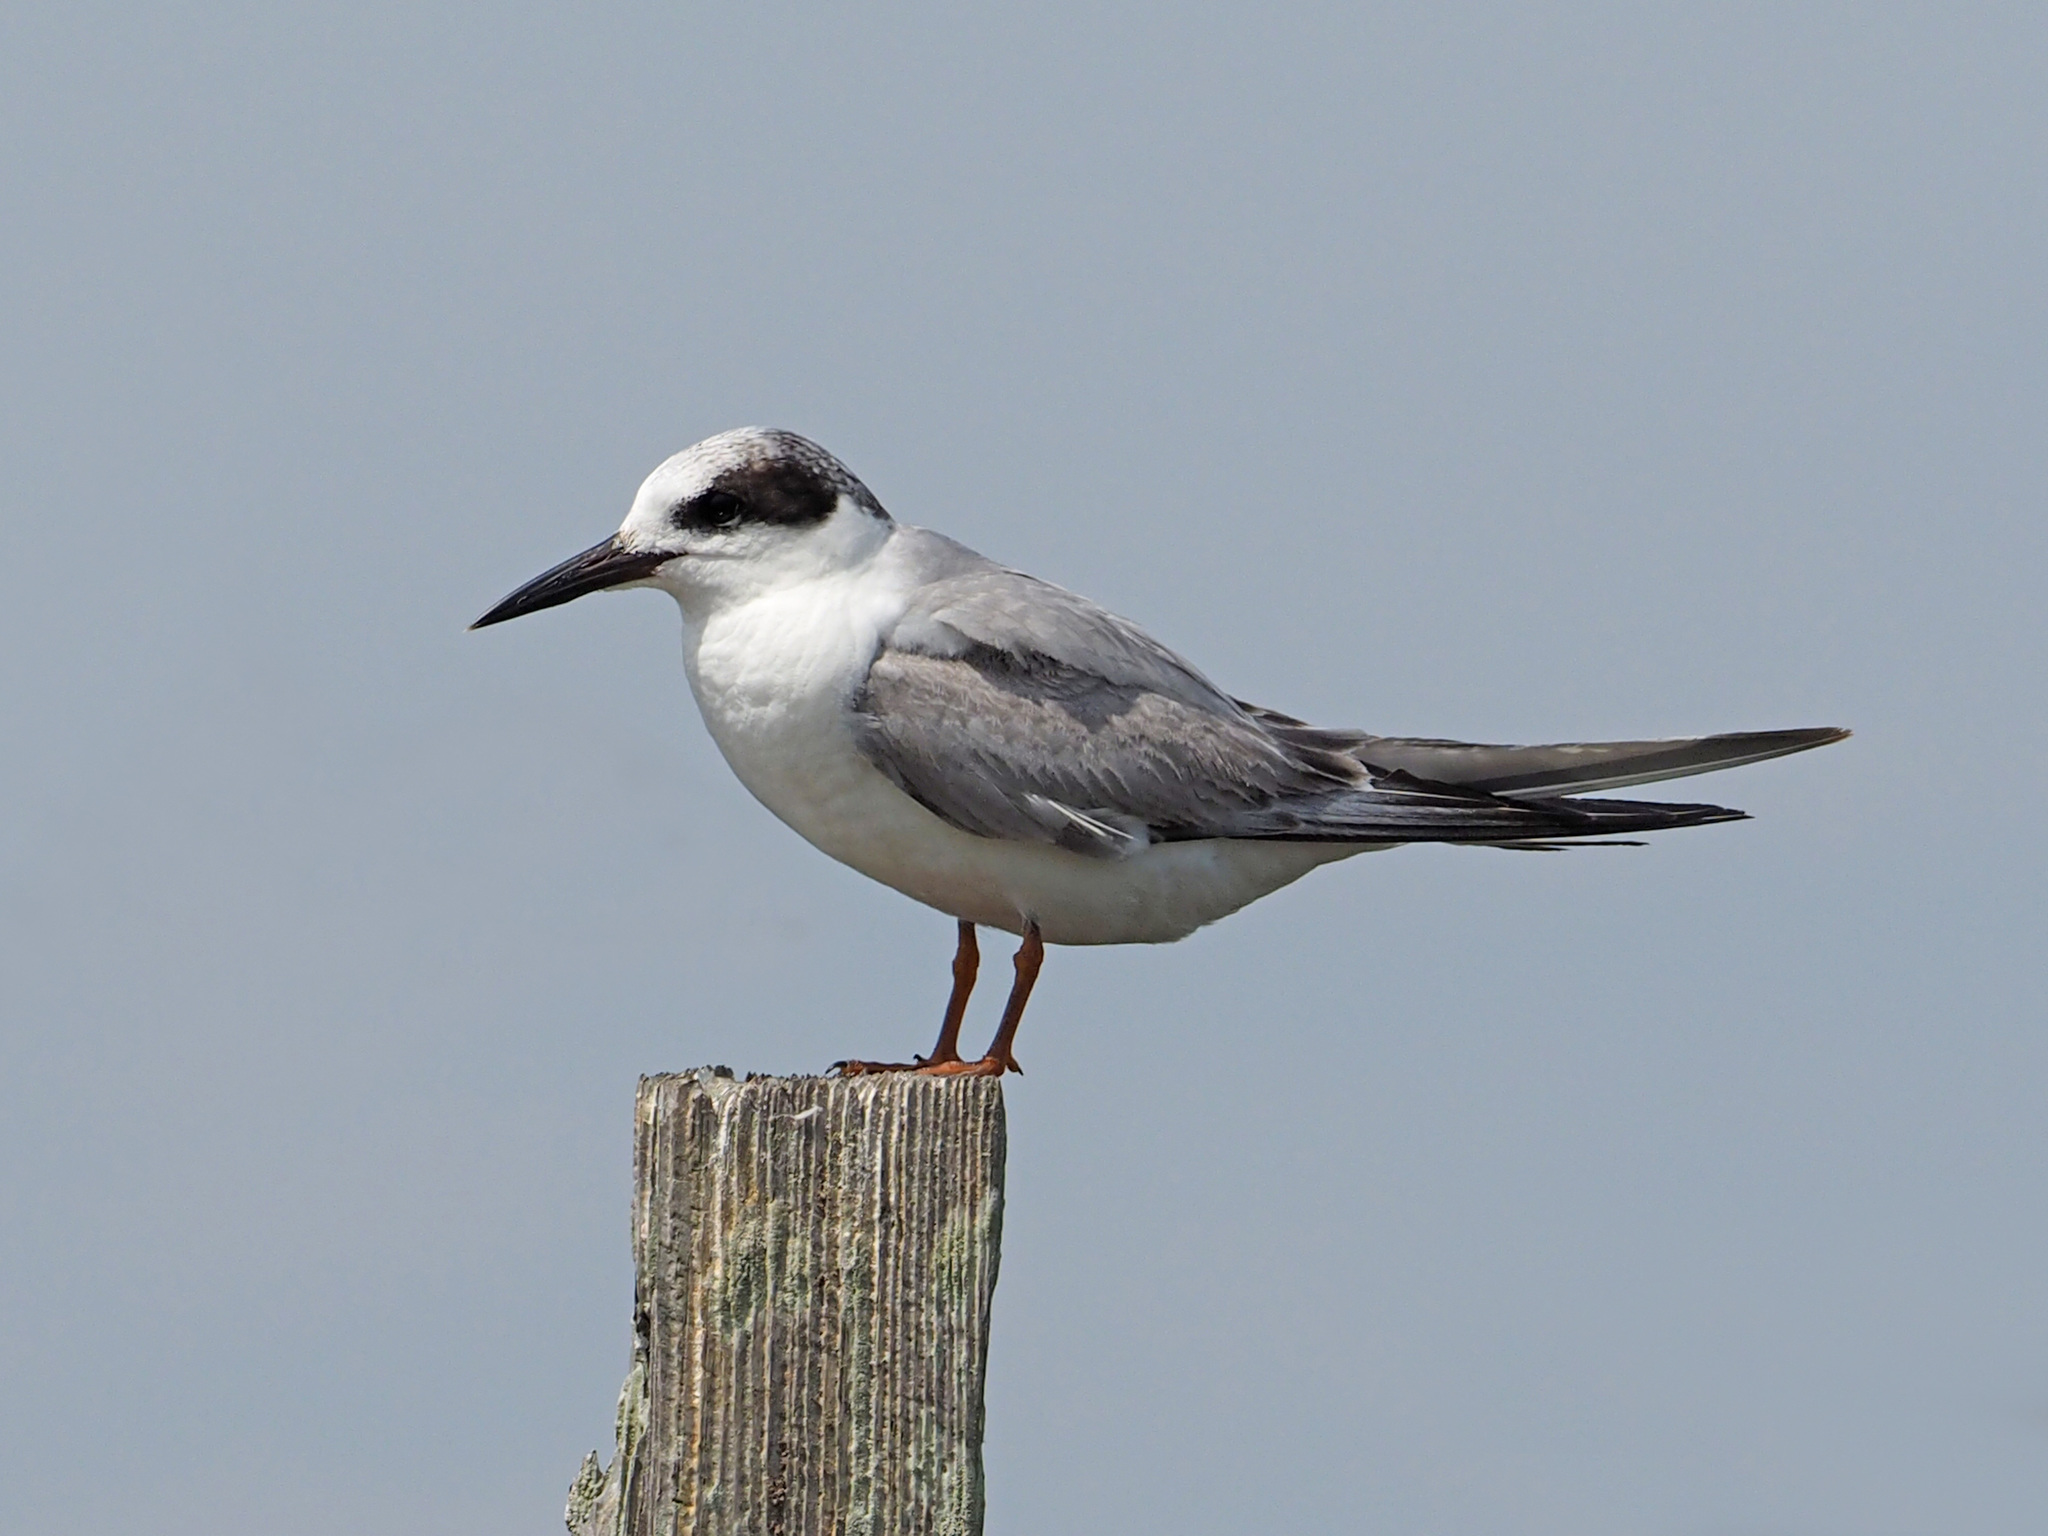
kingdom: Animalia
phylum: Chordata
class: Aves
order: Charadriiformes
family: Laridae
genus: Sterna
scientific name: Sterna forsteri
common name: Forster's tern
